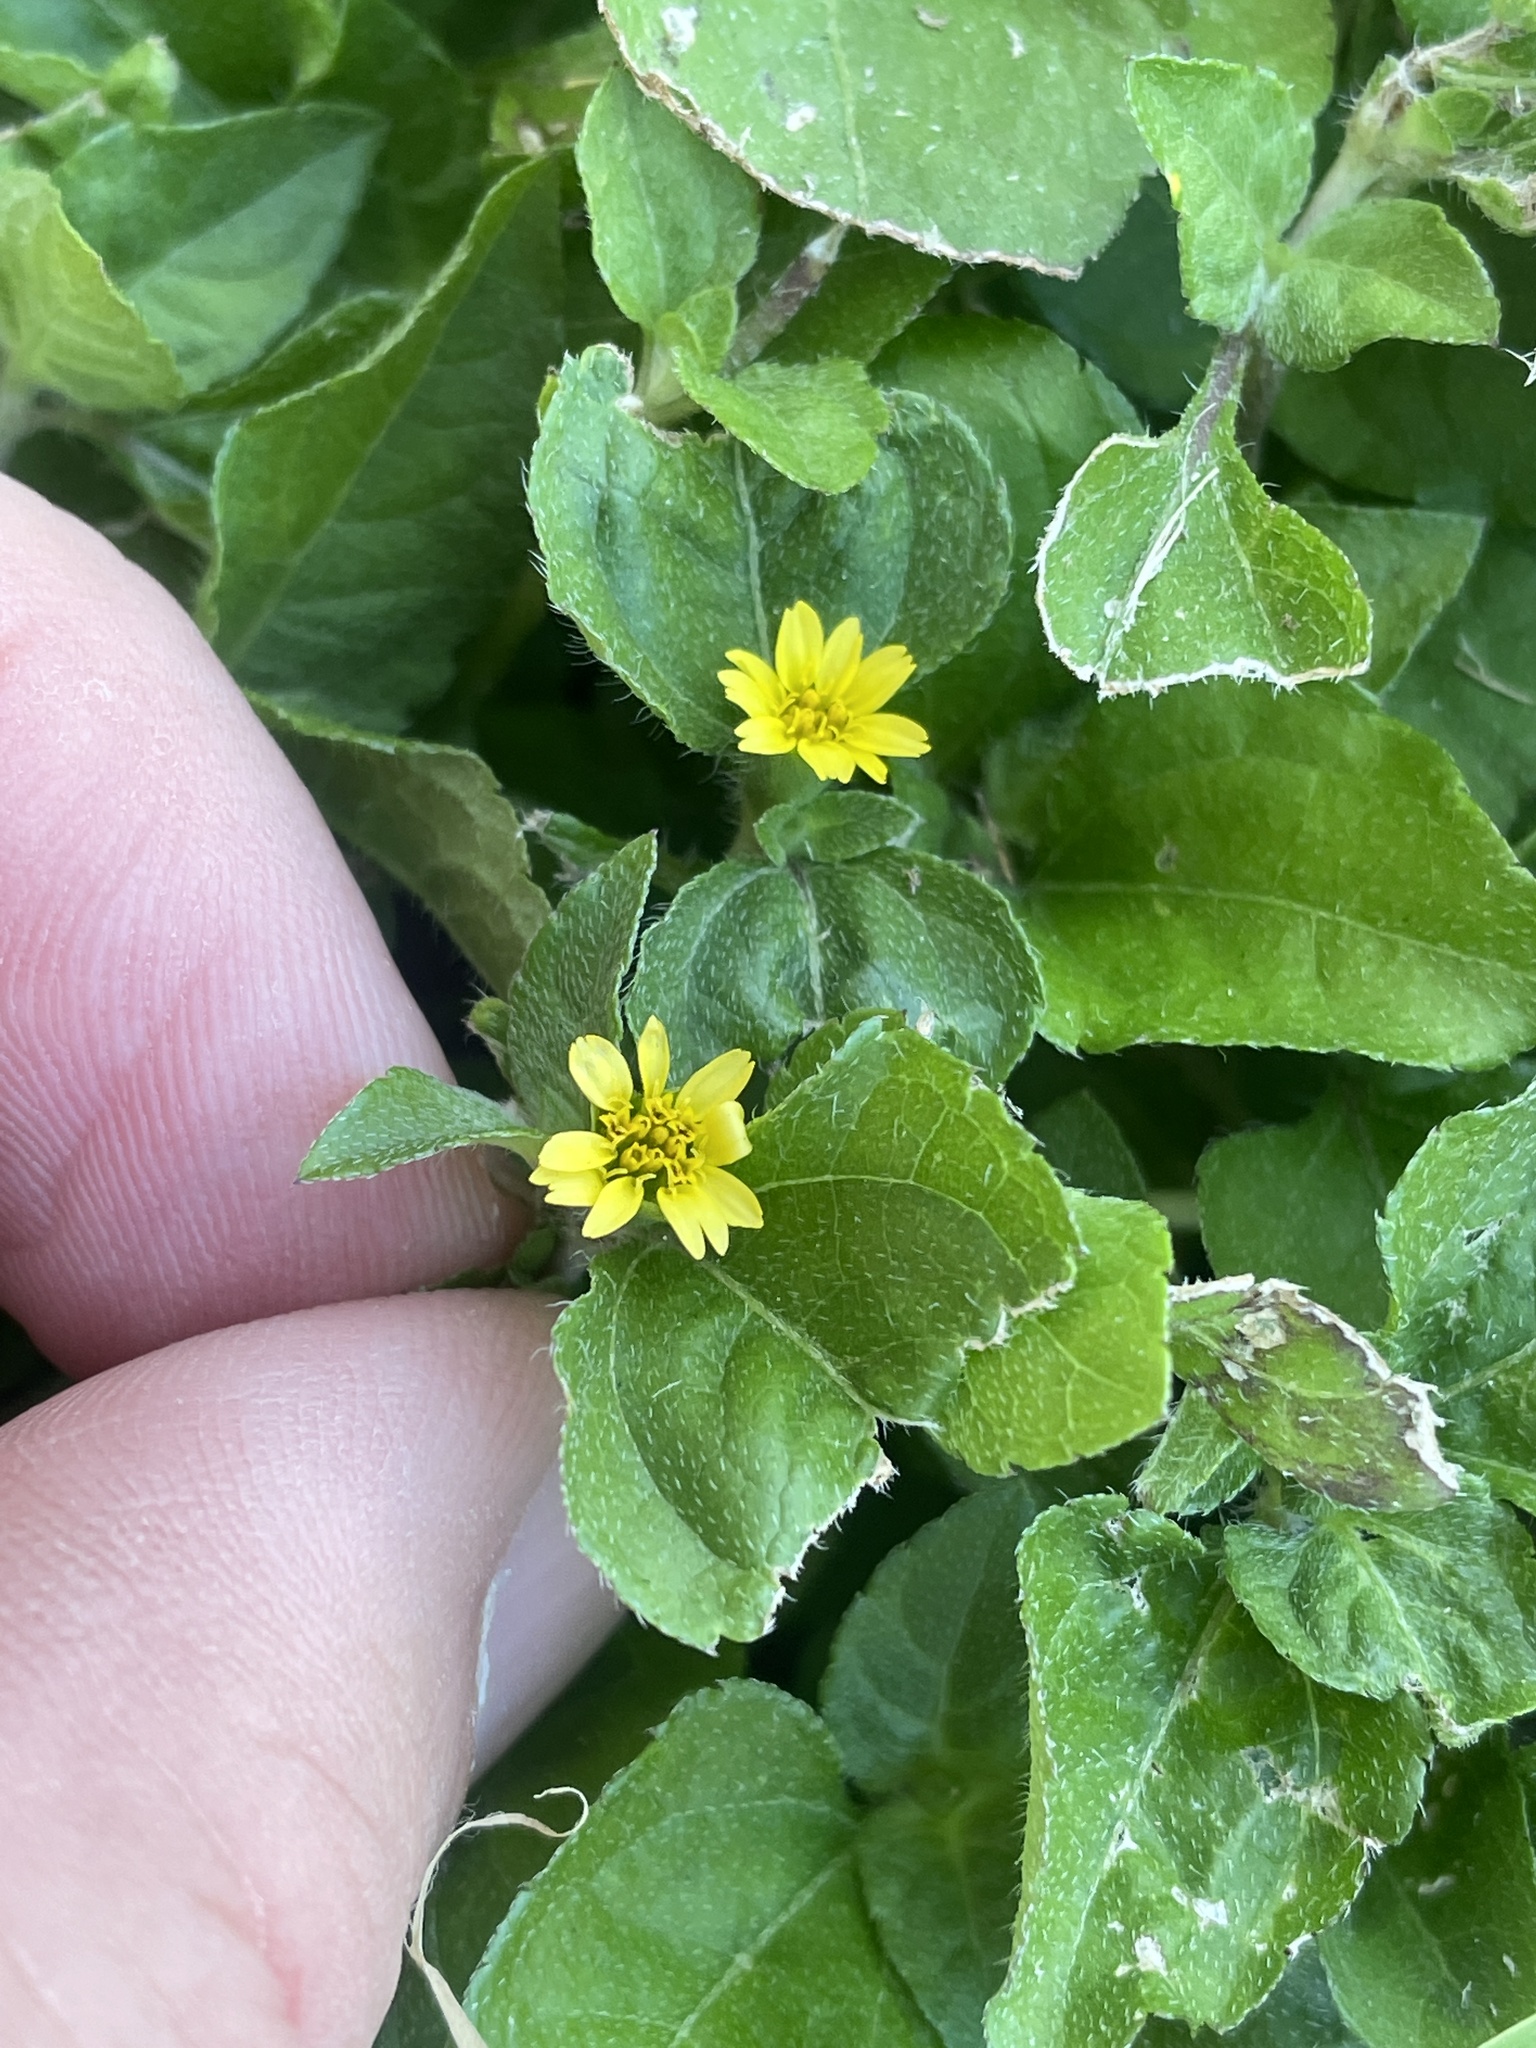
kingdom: Plantae
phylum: Tracheophyta
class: Magnoliopsida
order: Asterales
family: Asteraceae
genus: Calyptocarpus
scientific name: Calyptocarpus vialis
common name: Straggler daisy
